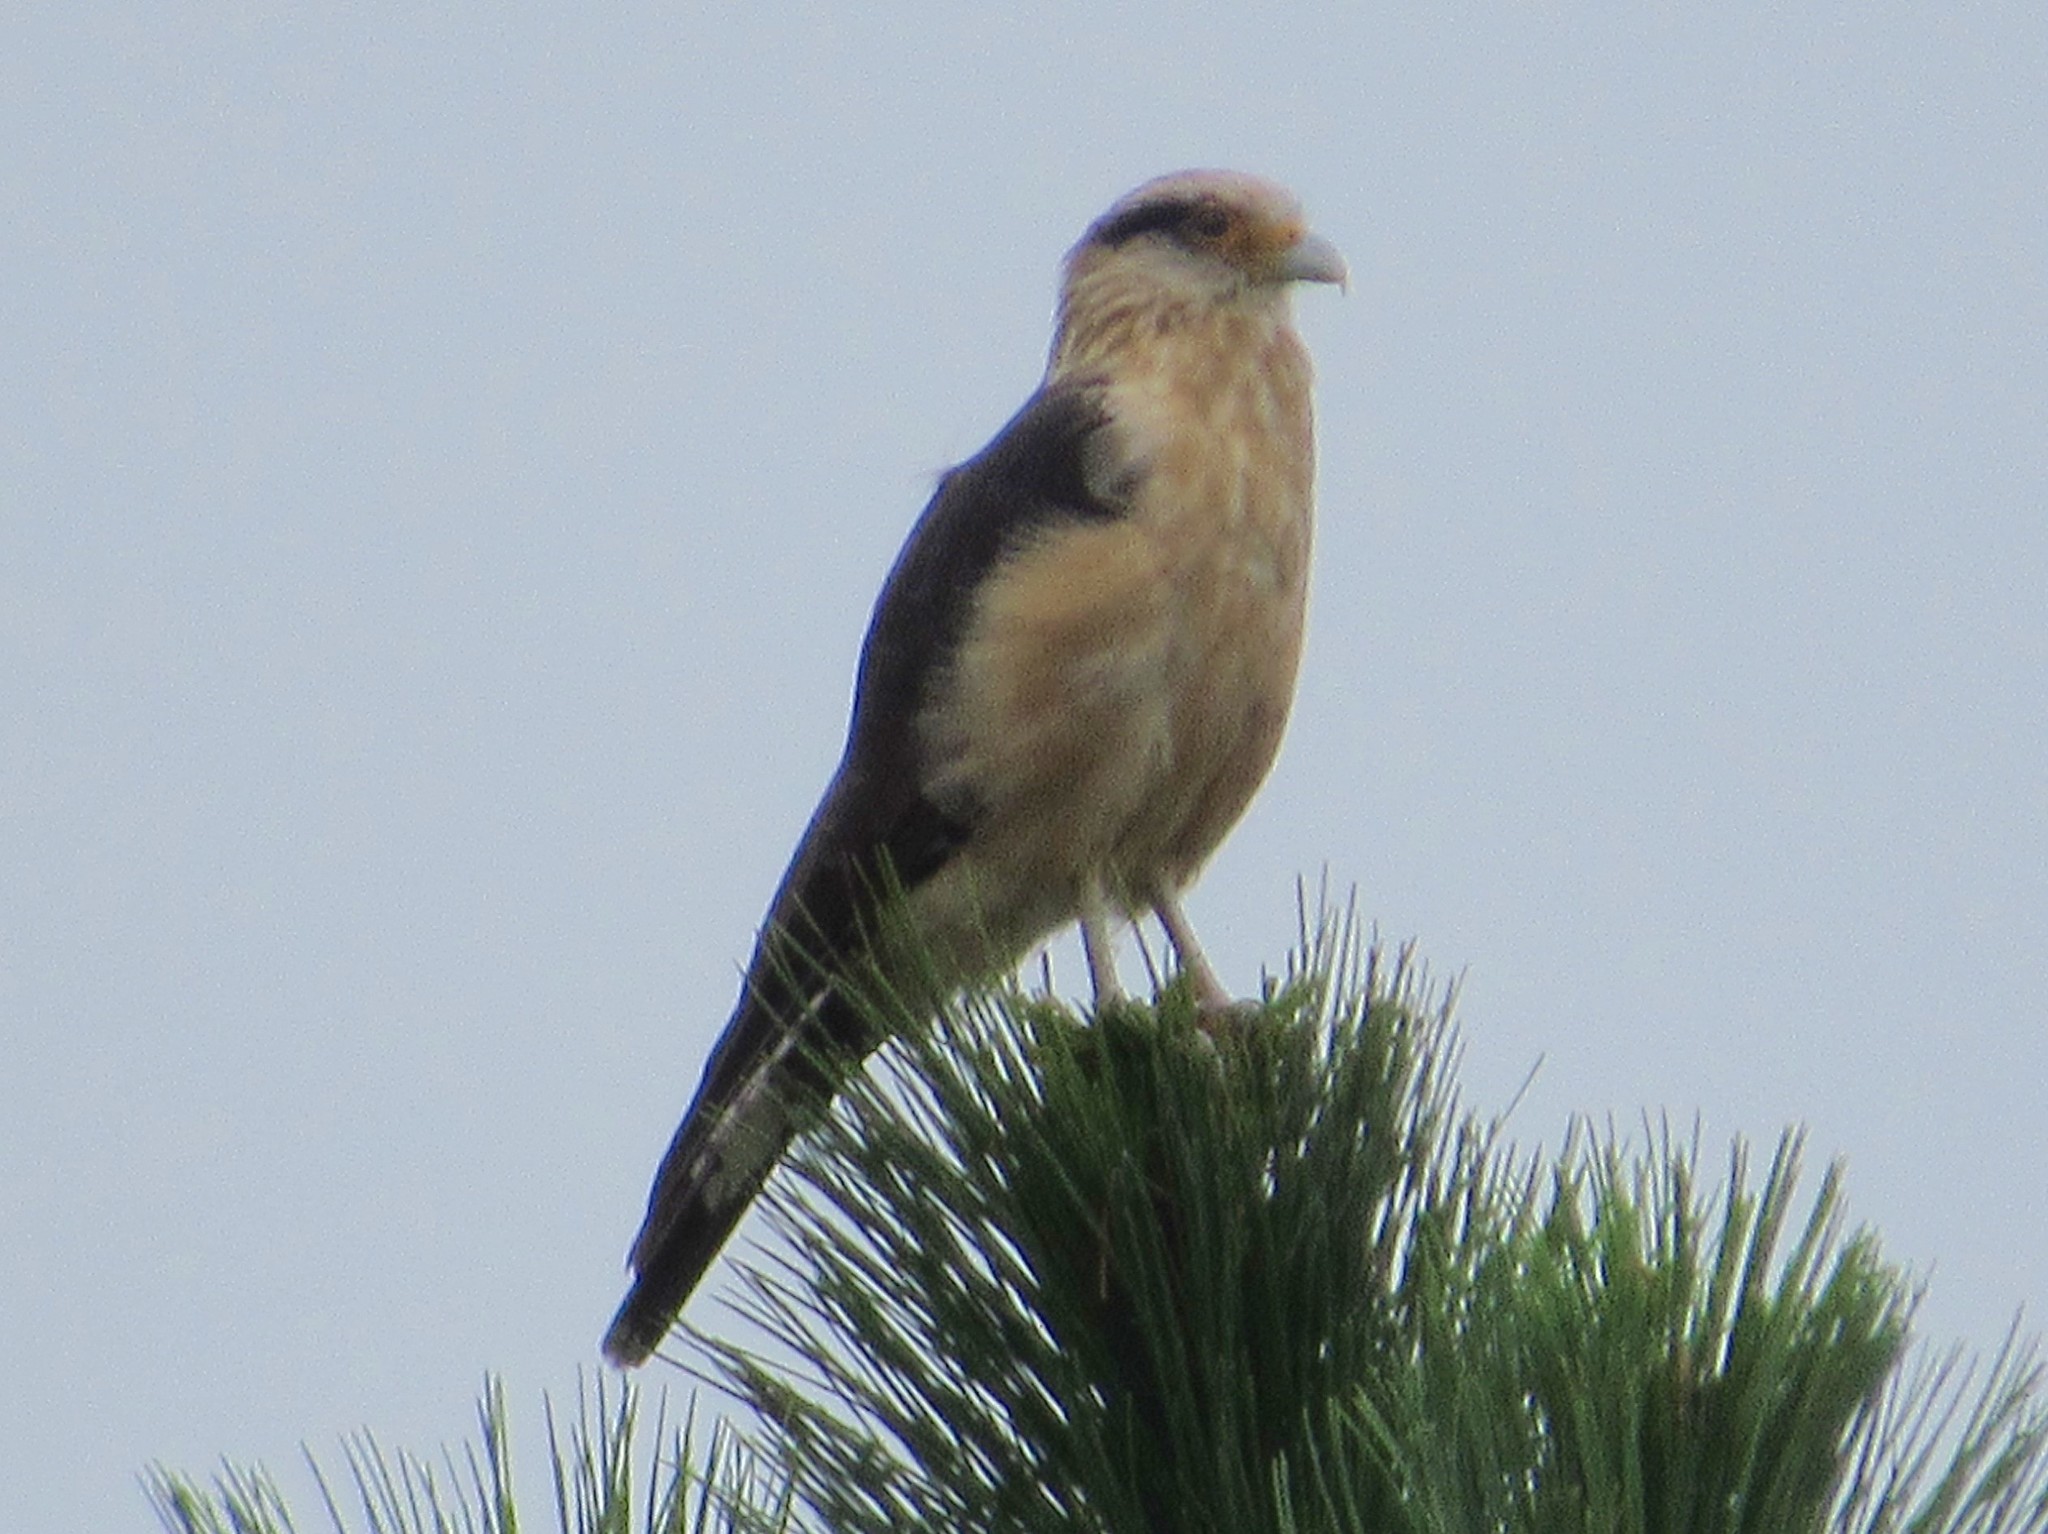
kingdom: Animalia
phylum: Chordata
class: Aves
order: Falconiformes
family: Falconidae
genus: Daptrius
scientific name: Daptrius
